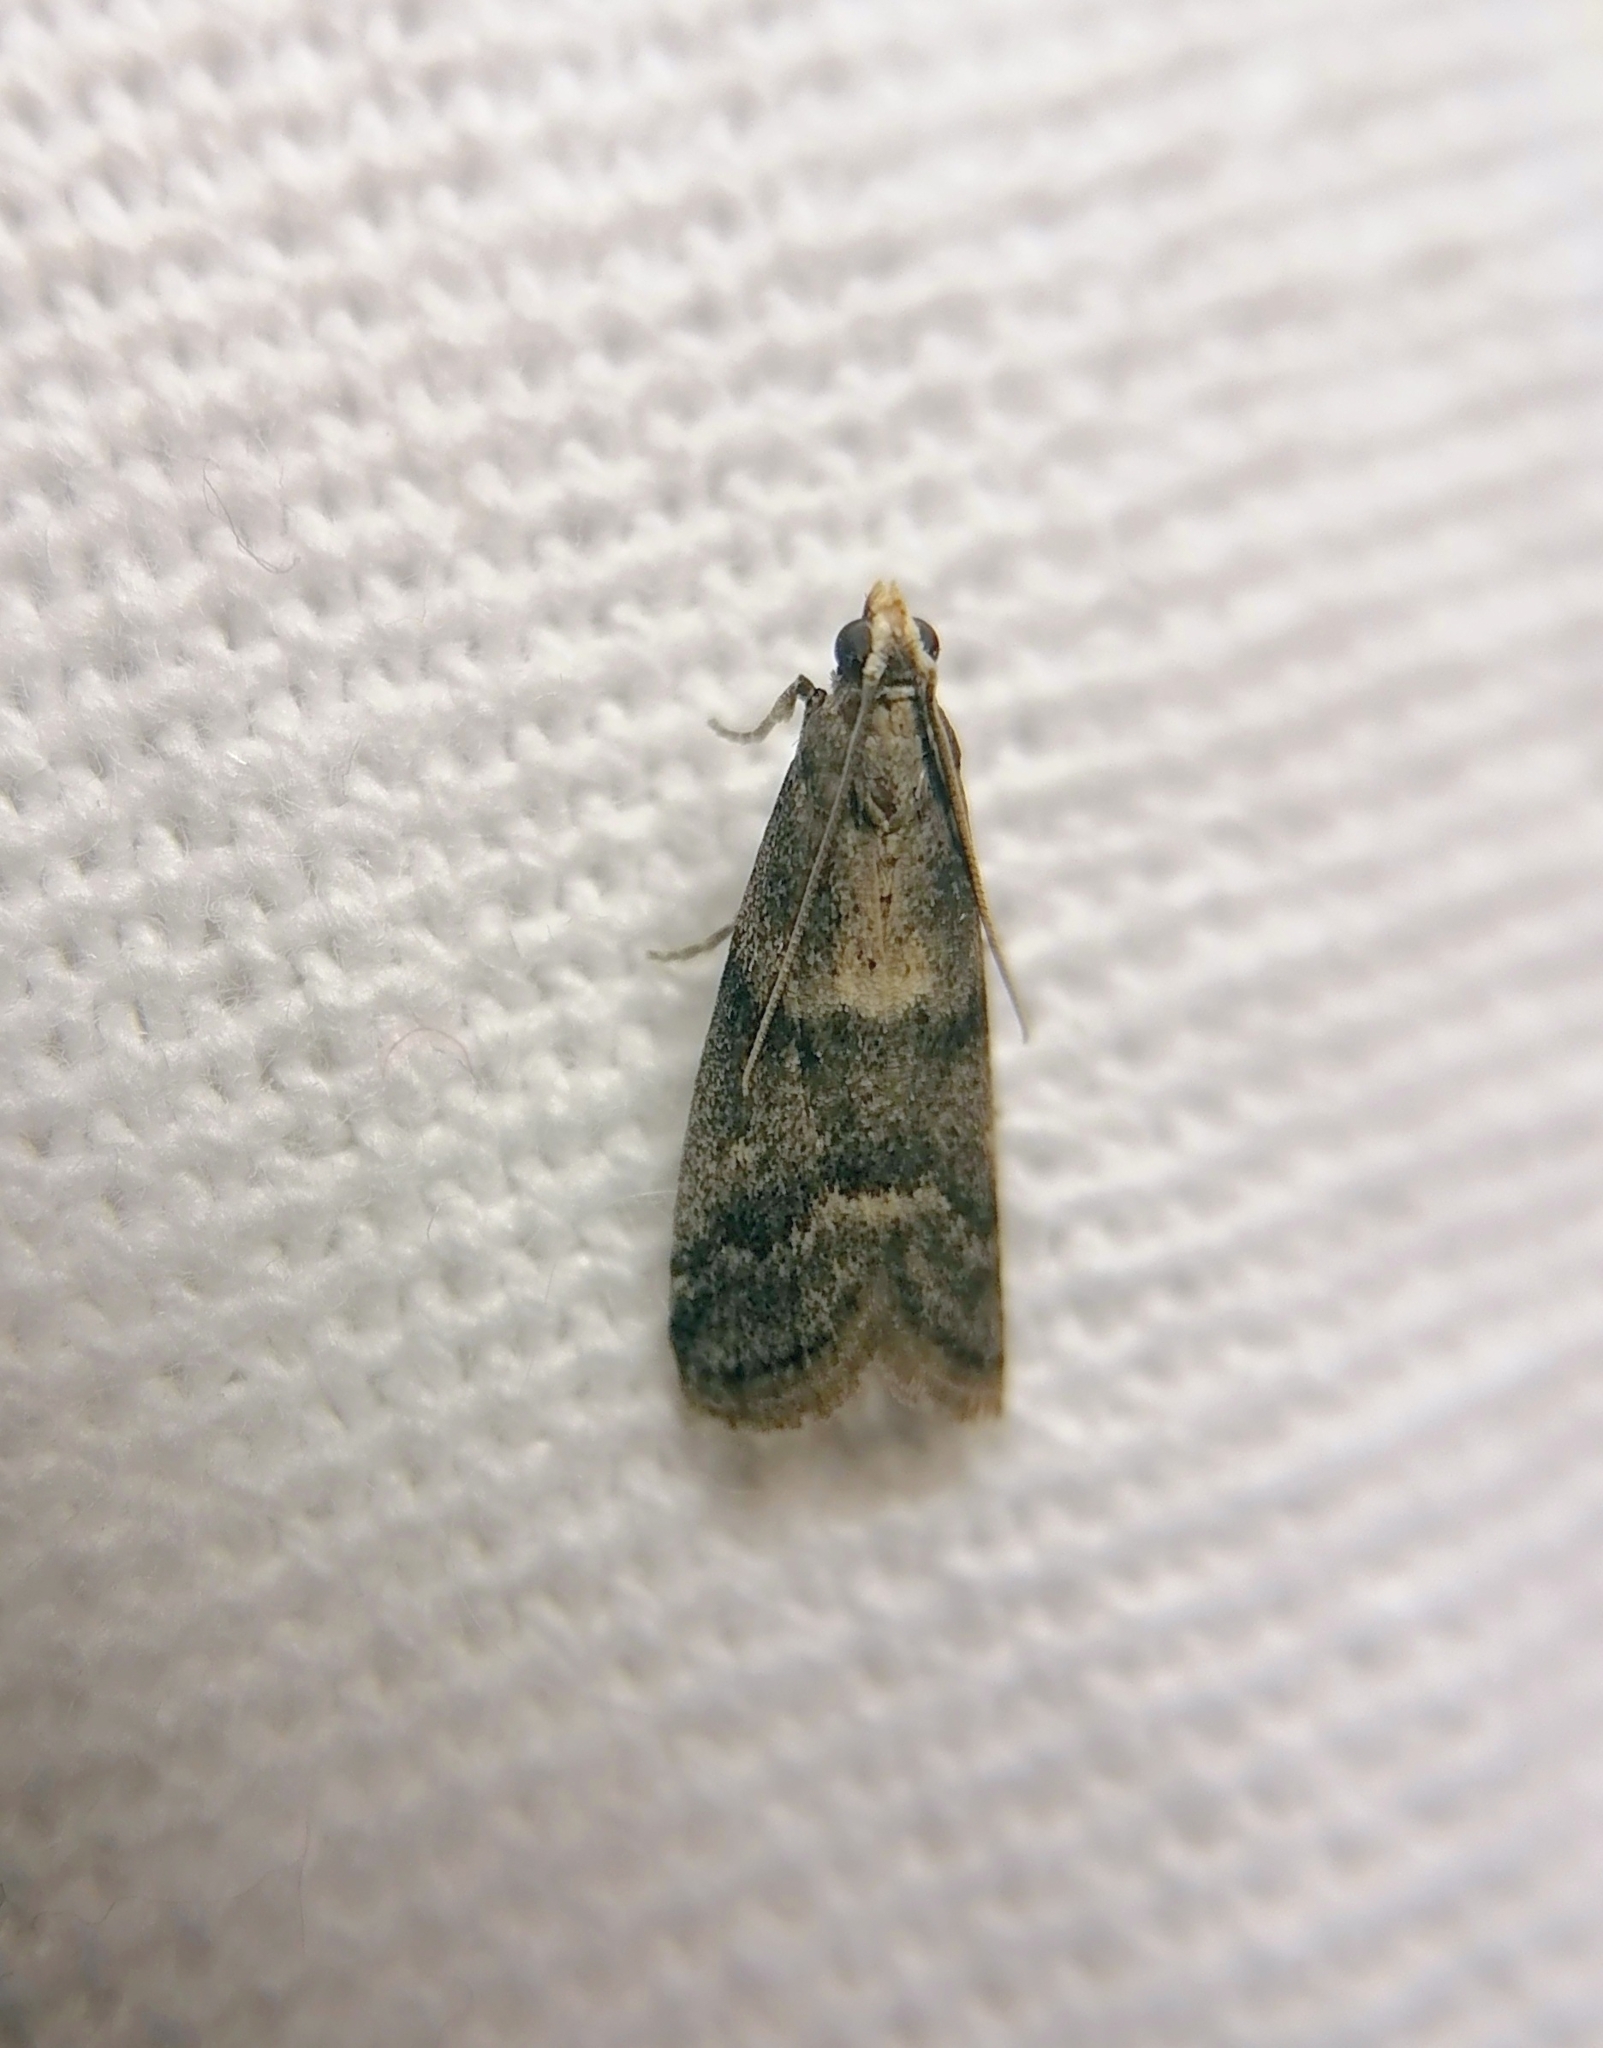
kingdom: Animalia
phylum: Arthropoda
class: Insecta
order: Lepidoptera
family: Pyralidae
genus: Glyptoteles
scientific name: Glyptoteles leucacrinella
